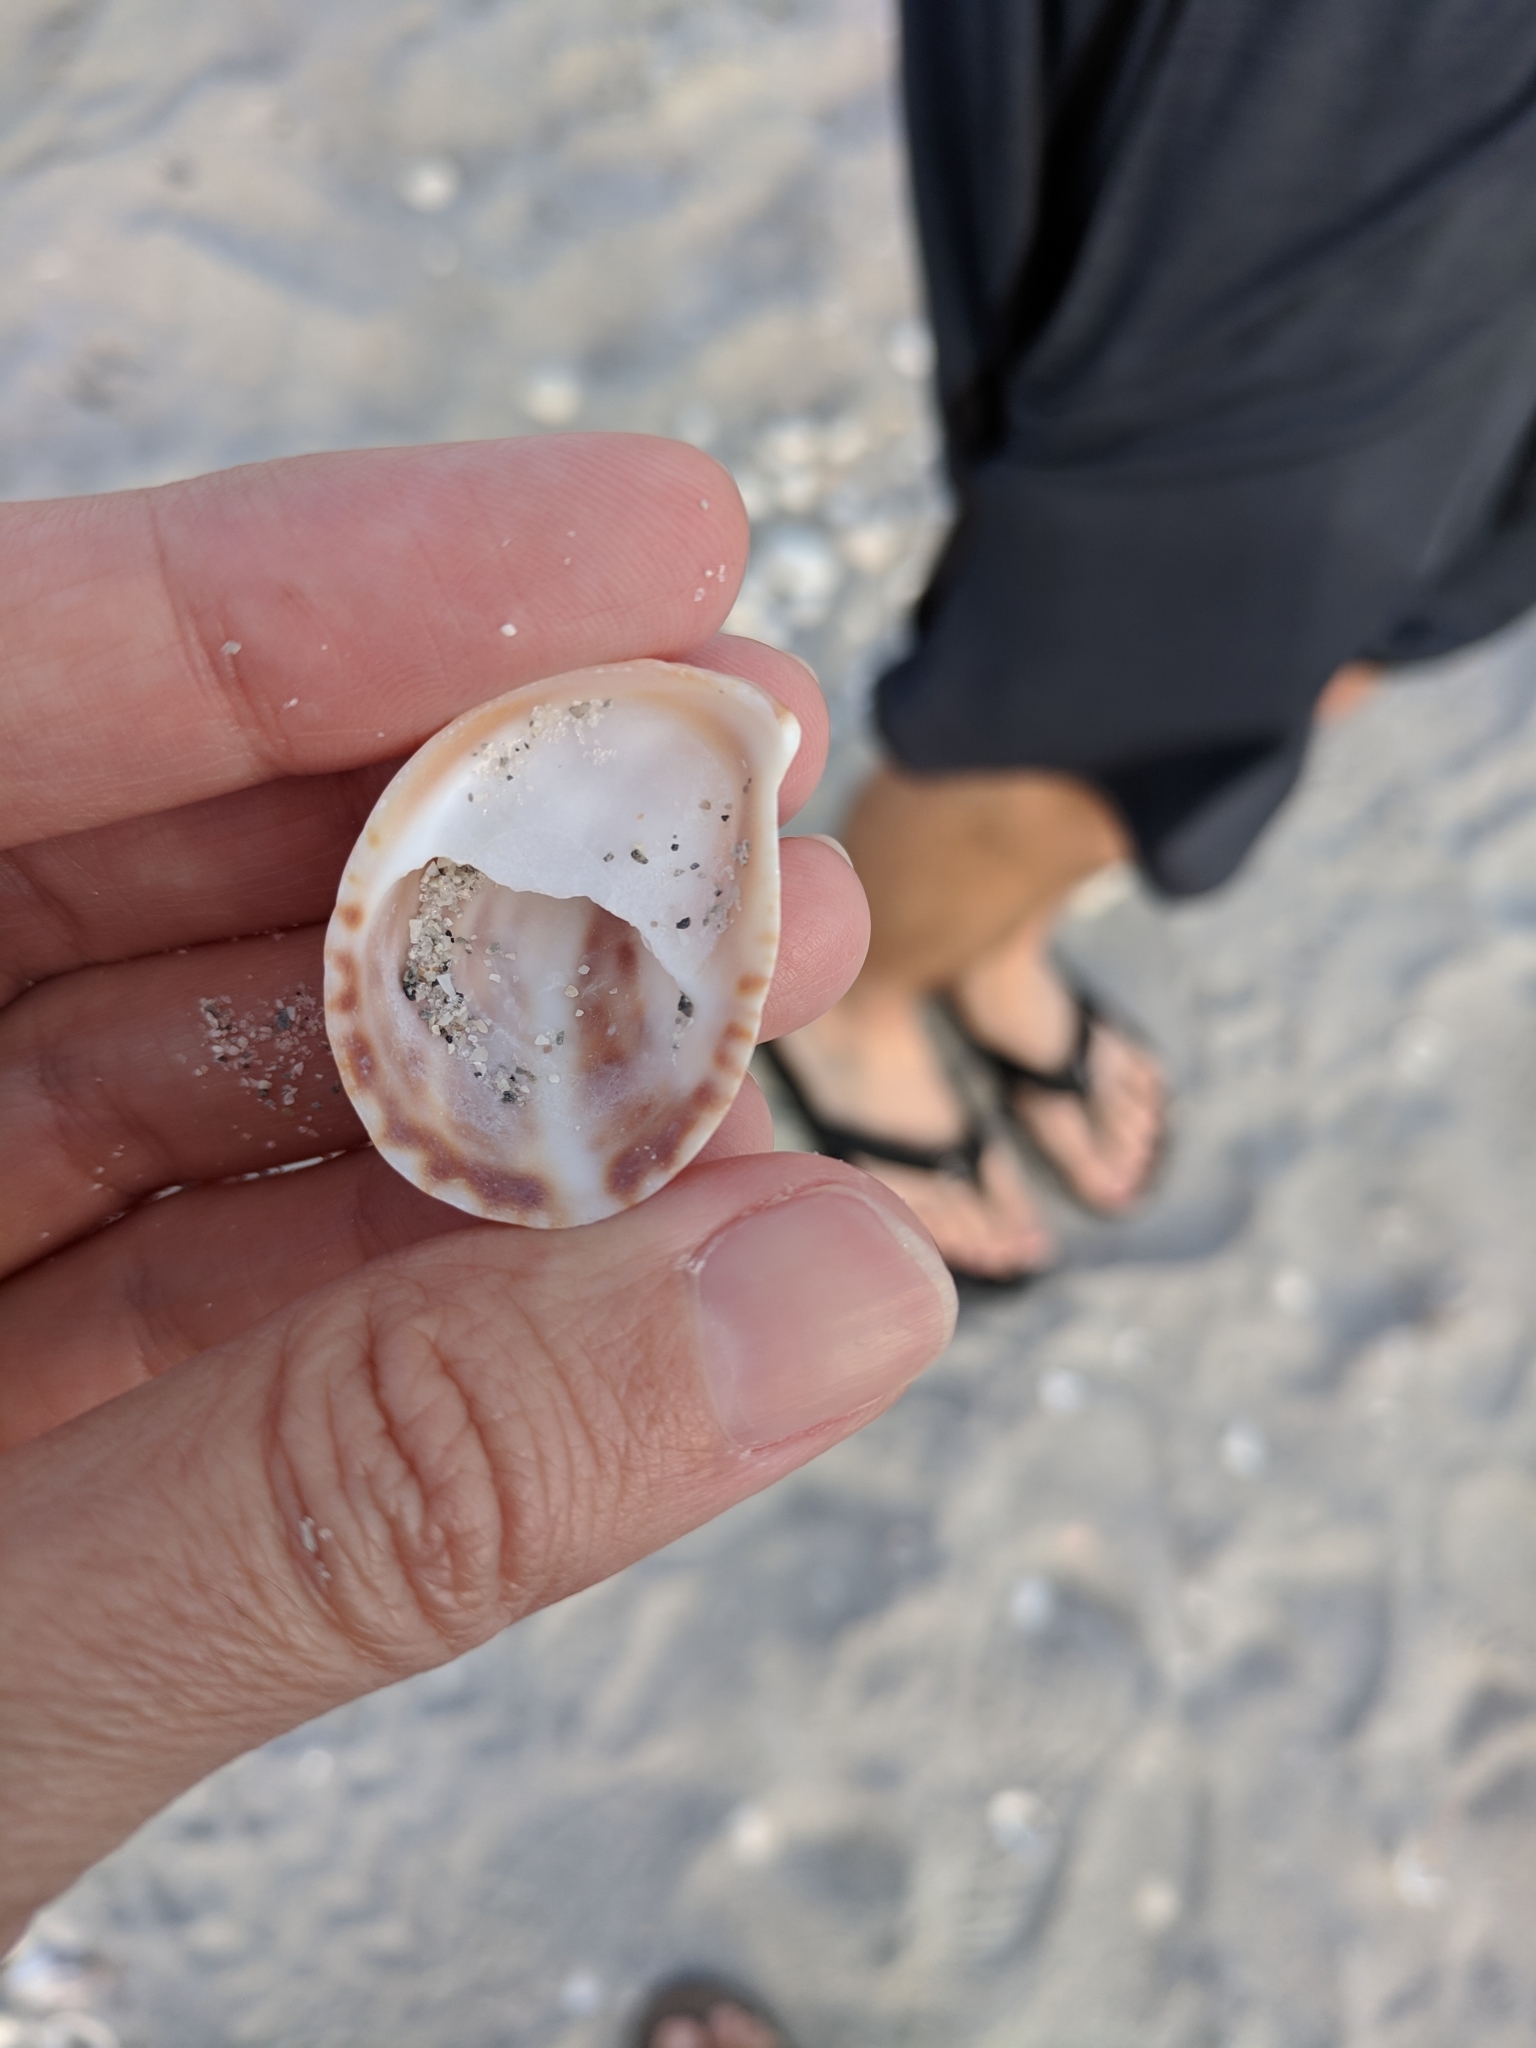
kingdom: Animalia
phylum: Mollusca
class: Gastropoda
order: Littorinimorpha
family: Calyptraeidae
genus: Crepidula
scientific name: Crepidula fornicata
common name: Slipper limpet
